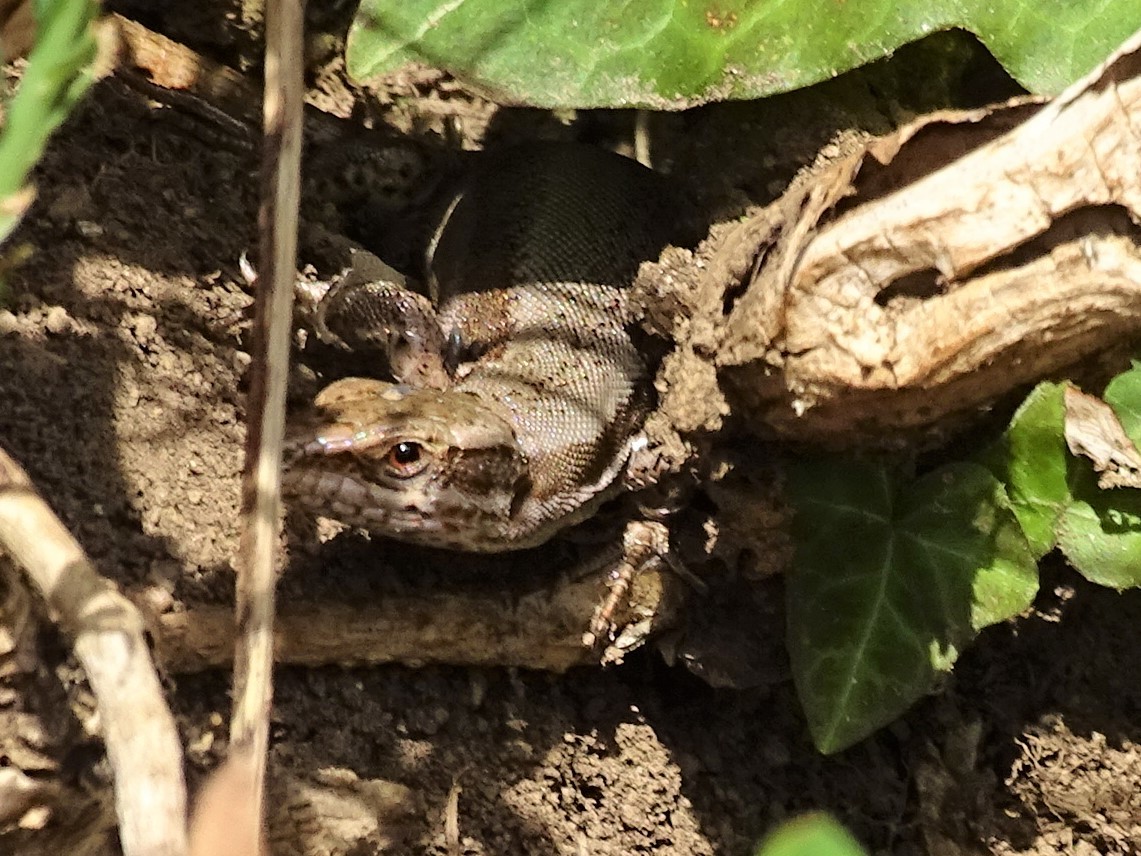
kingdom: Animalia
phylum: Chordata
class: Squamata
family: Lacertidae
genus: Podarcis
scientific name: Podarcis muralis
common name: Common wall lizard
